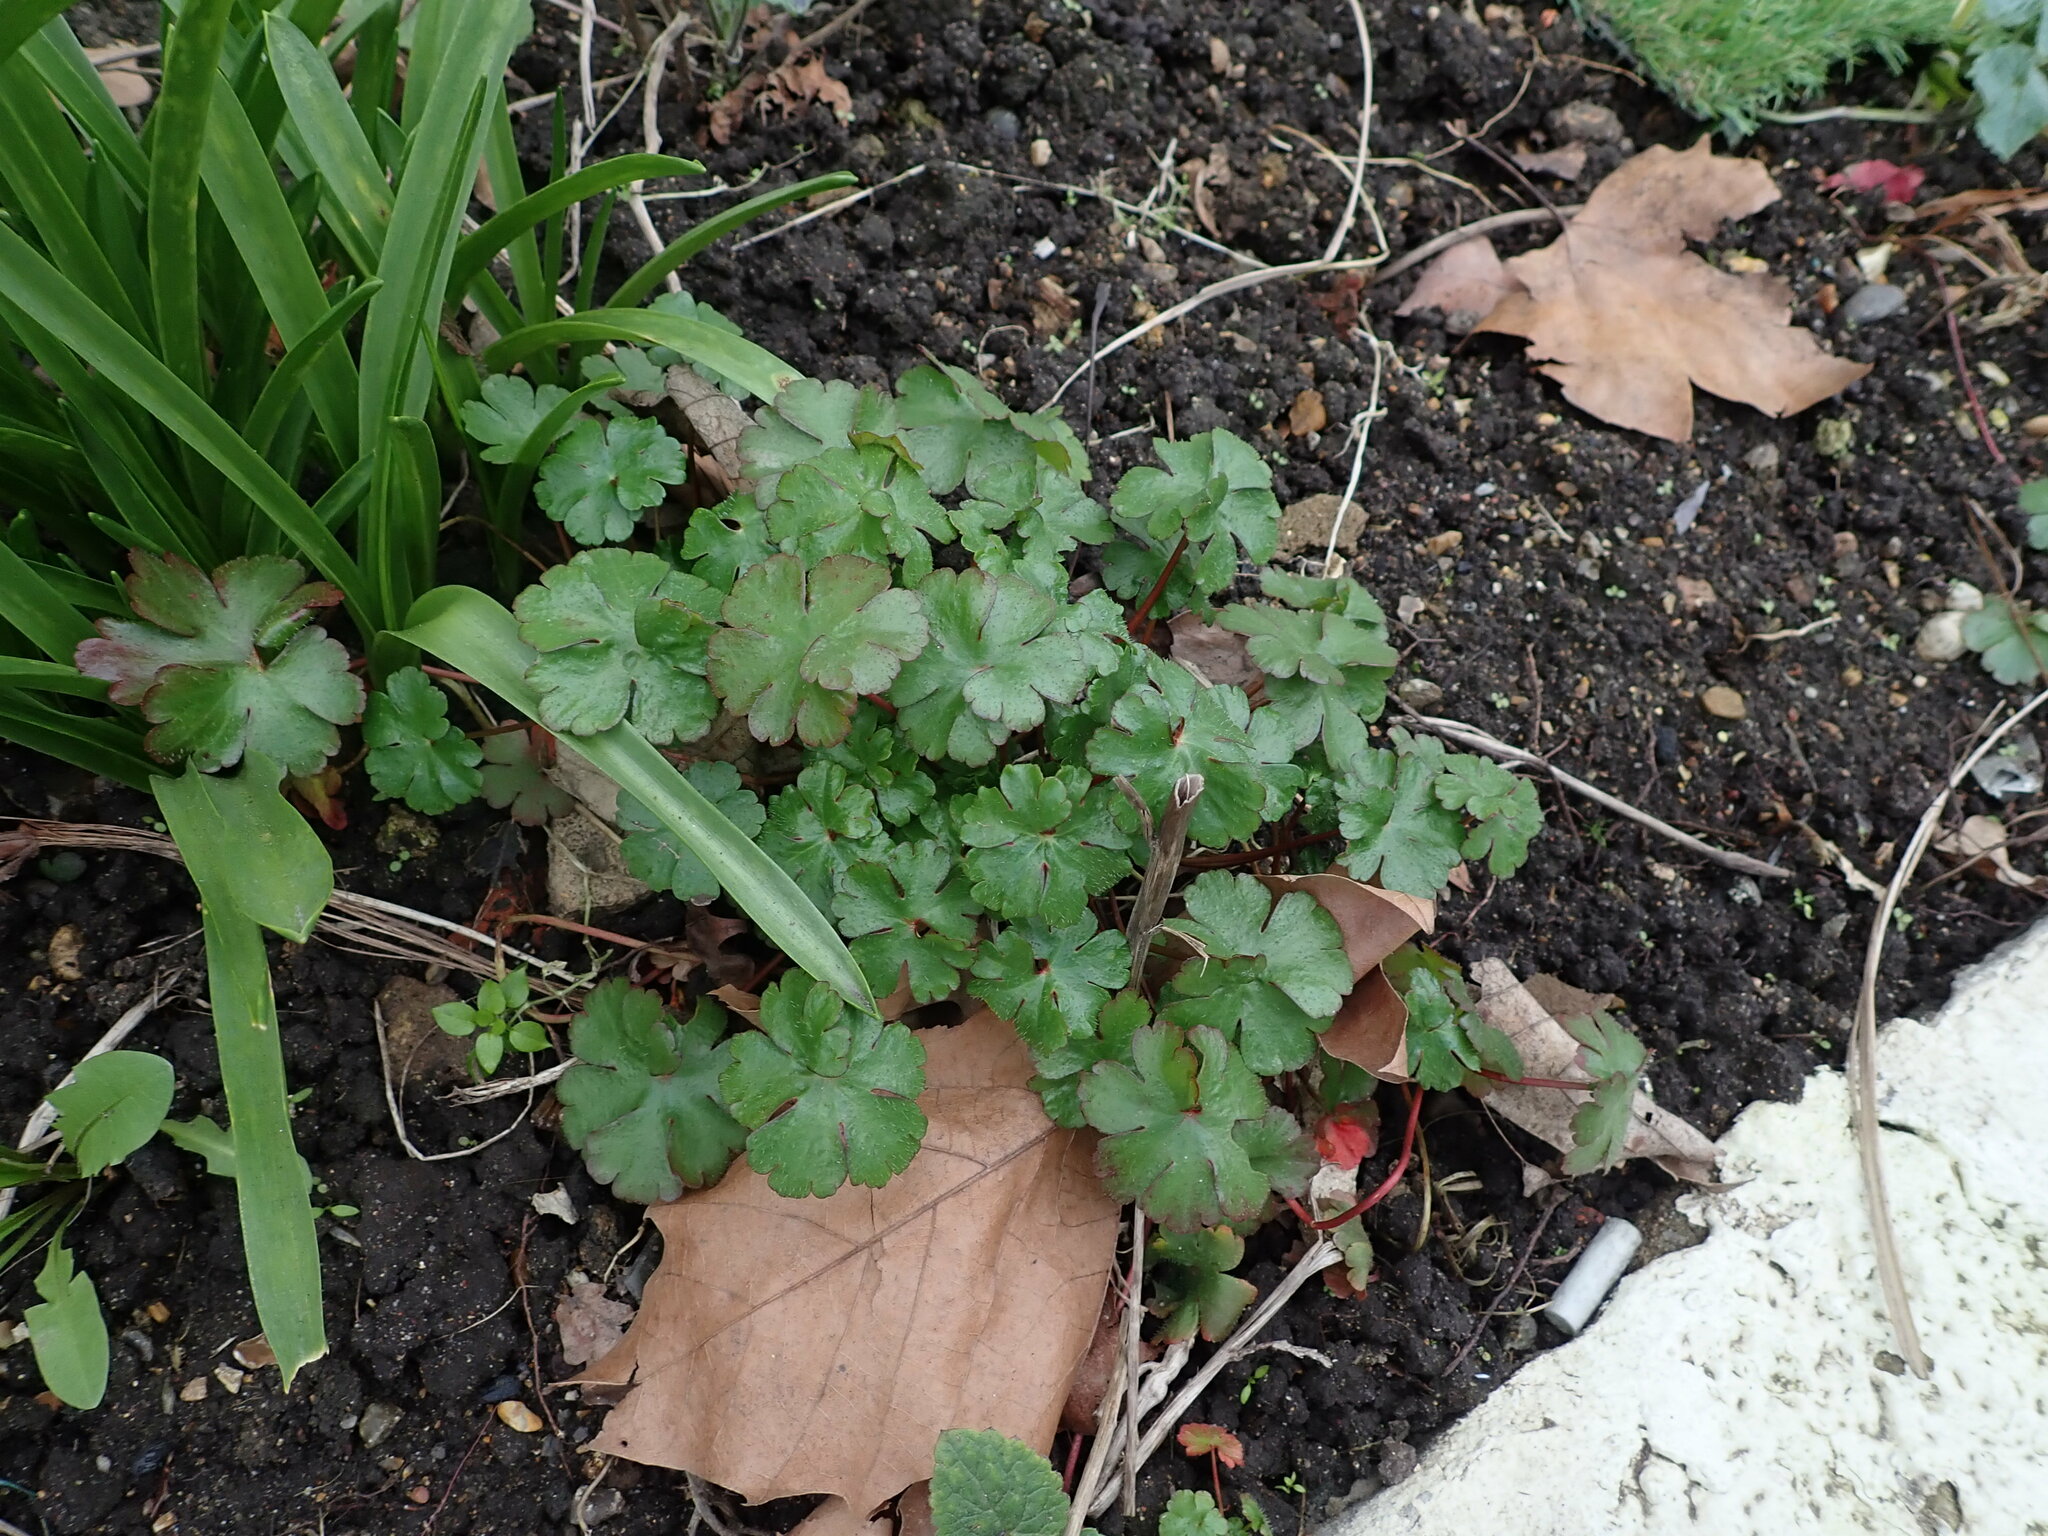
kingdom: Plantae
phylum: Tracheophyta
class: Magnoliopsida
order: Geraniales
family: Geraniaceae
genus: Geranium
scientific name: Geranium lucidum
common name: Shining crane's-bill
